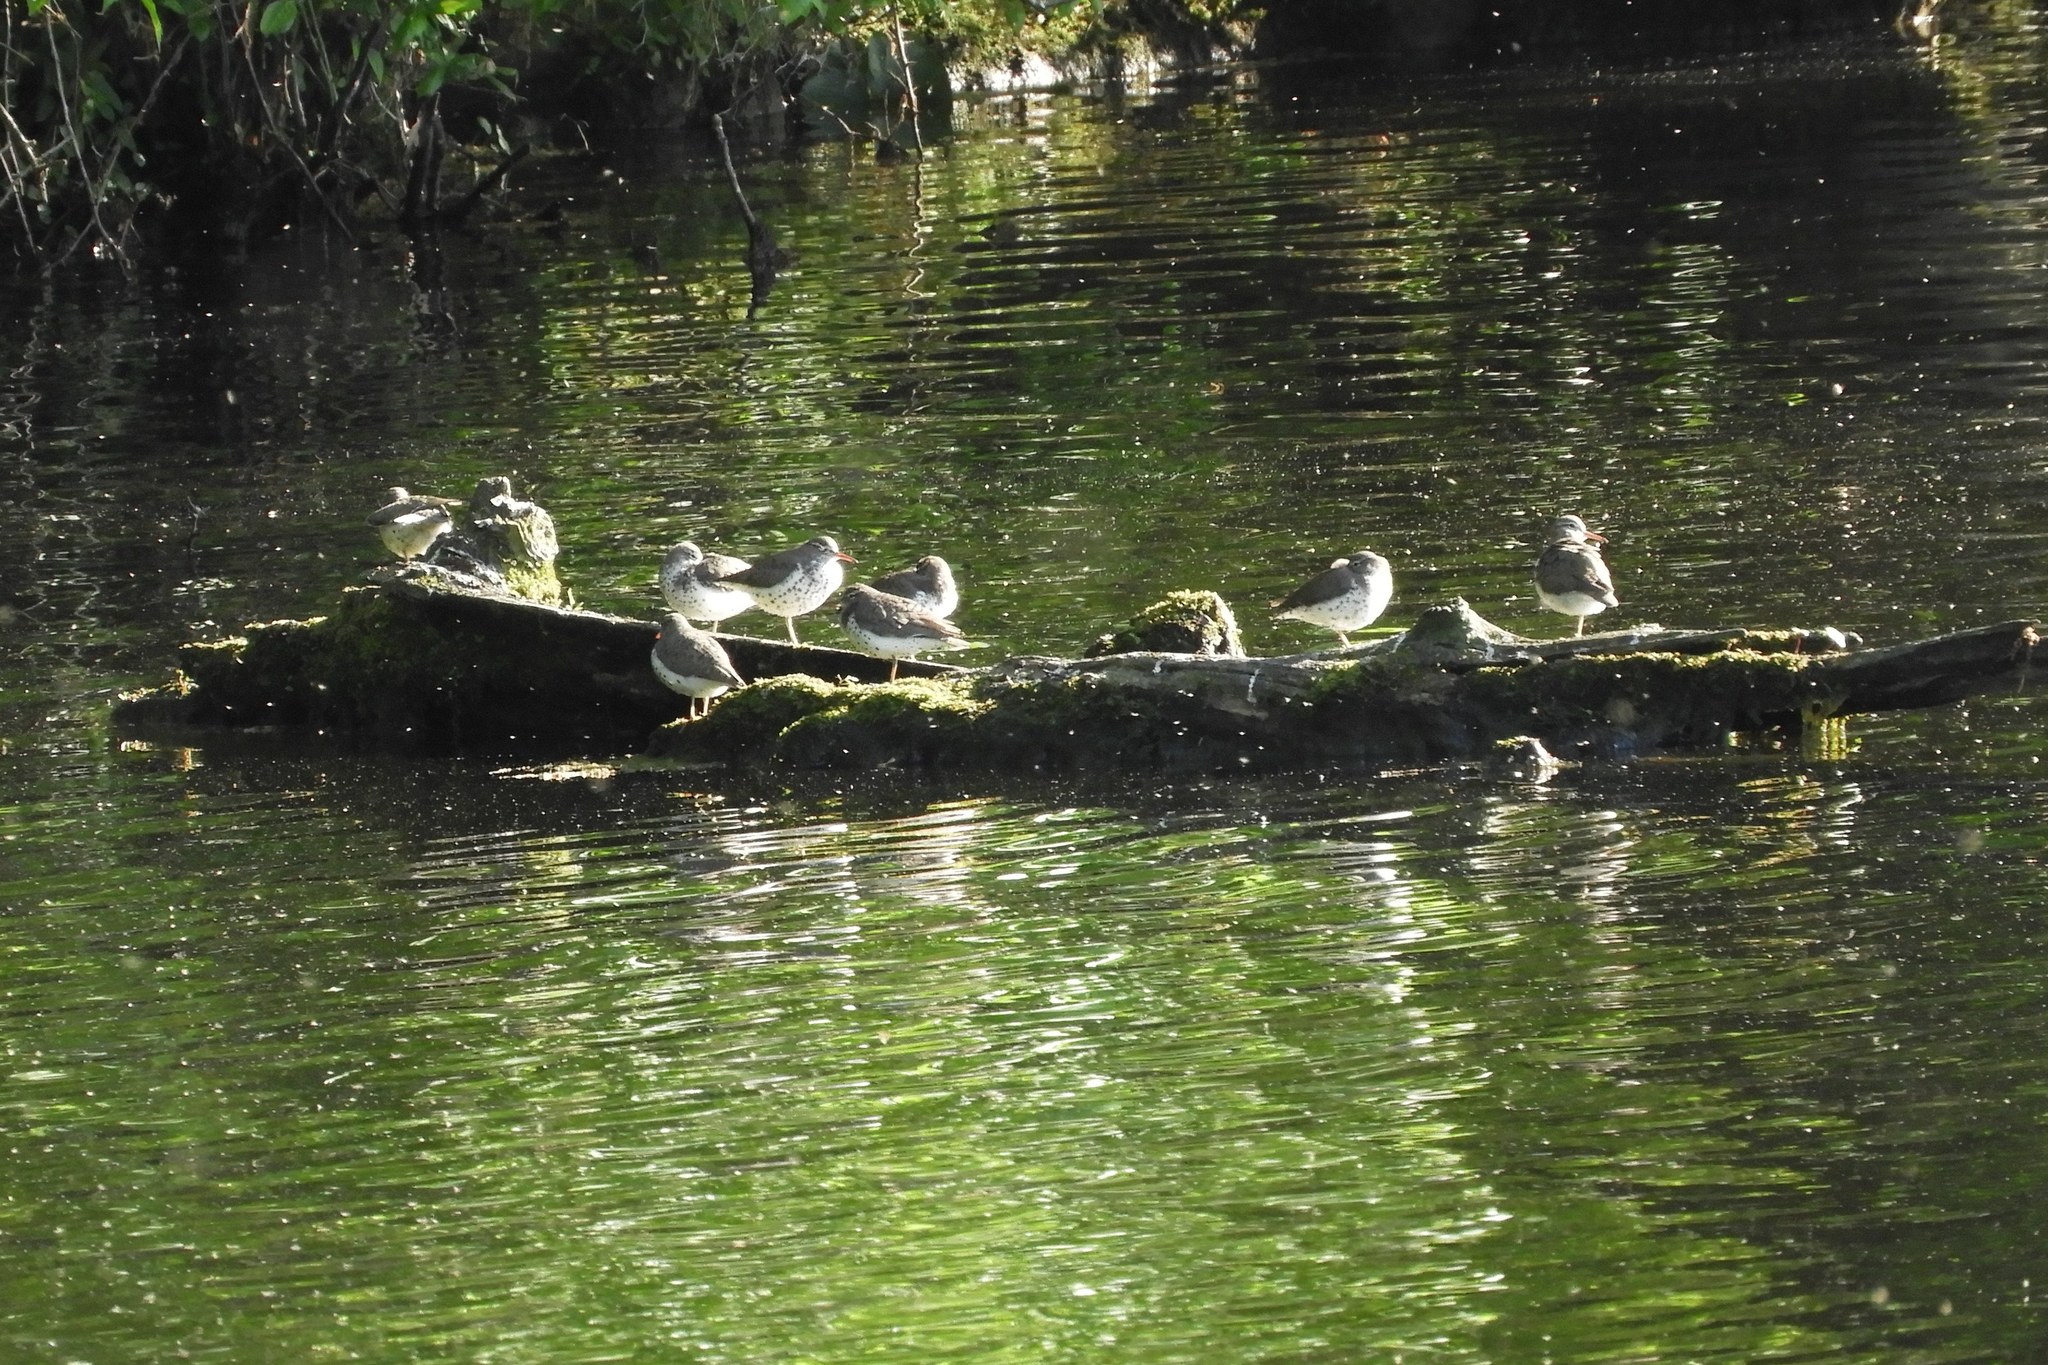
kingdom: Animalia
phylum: Chordata
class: Aves
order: Charadriiformes
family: Scolopacidae
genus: Actitis
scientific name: Actitis macularius
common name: Spotted sandpiper
